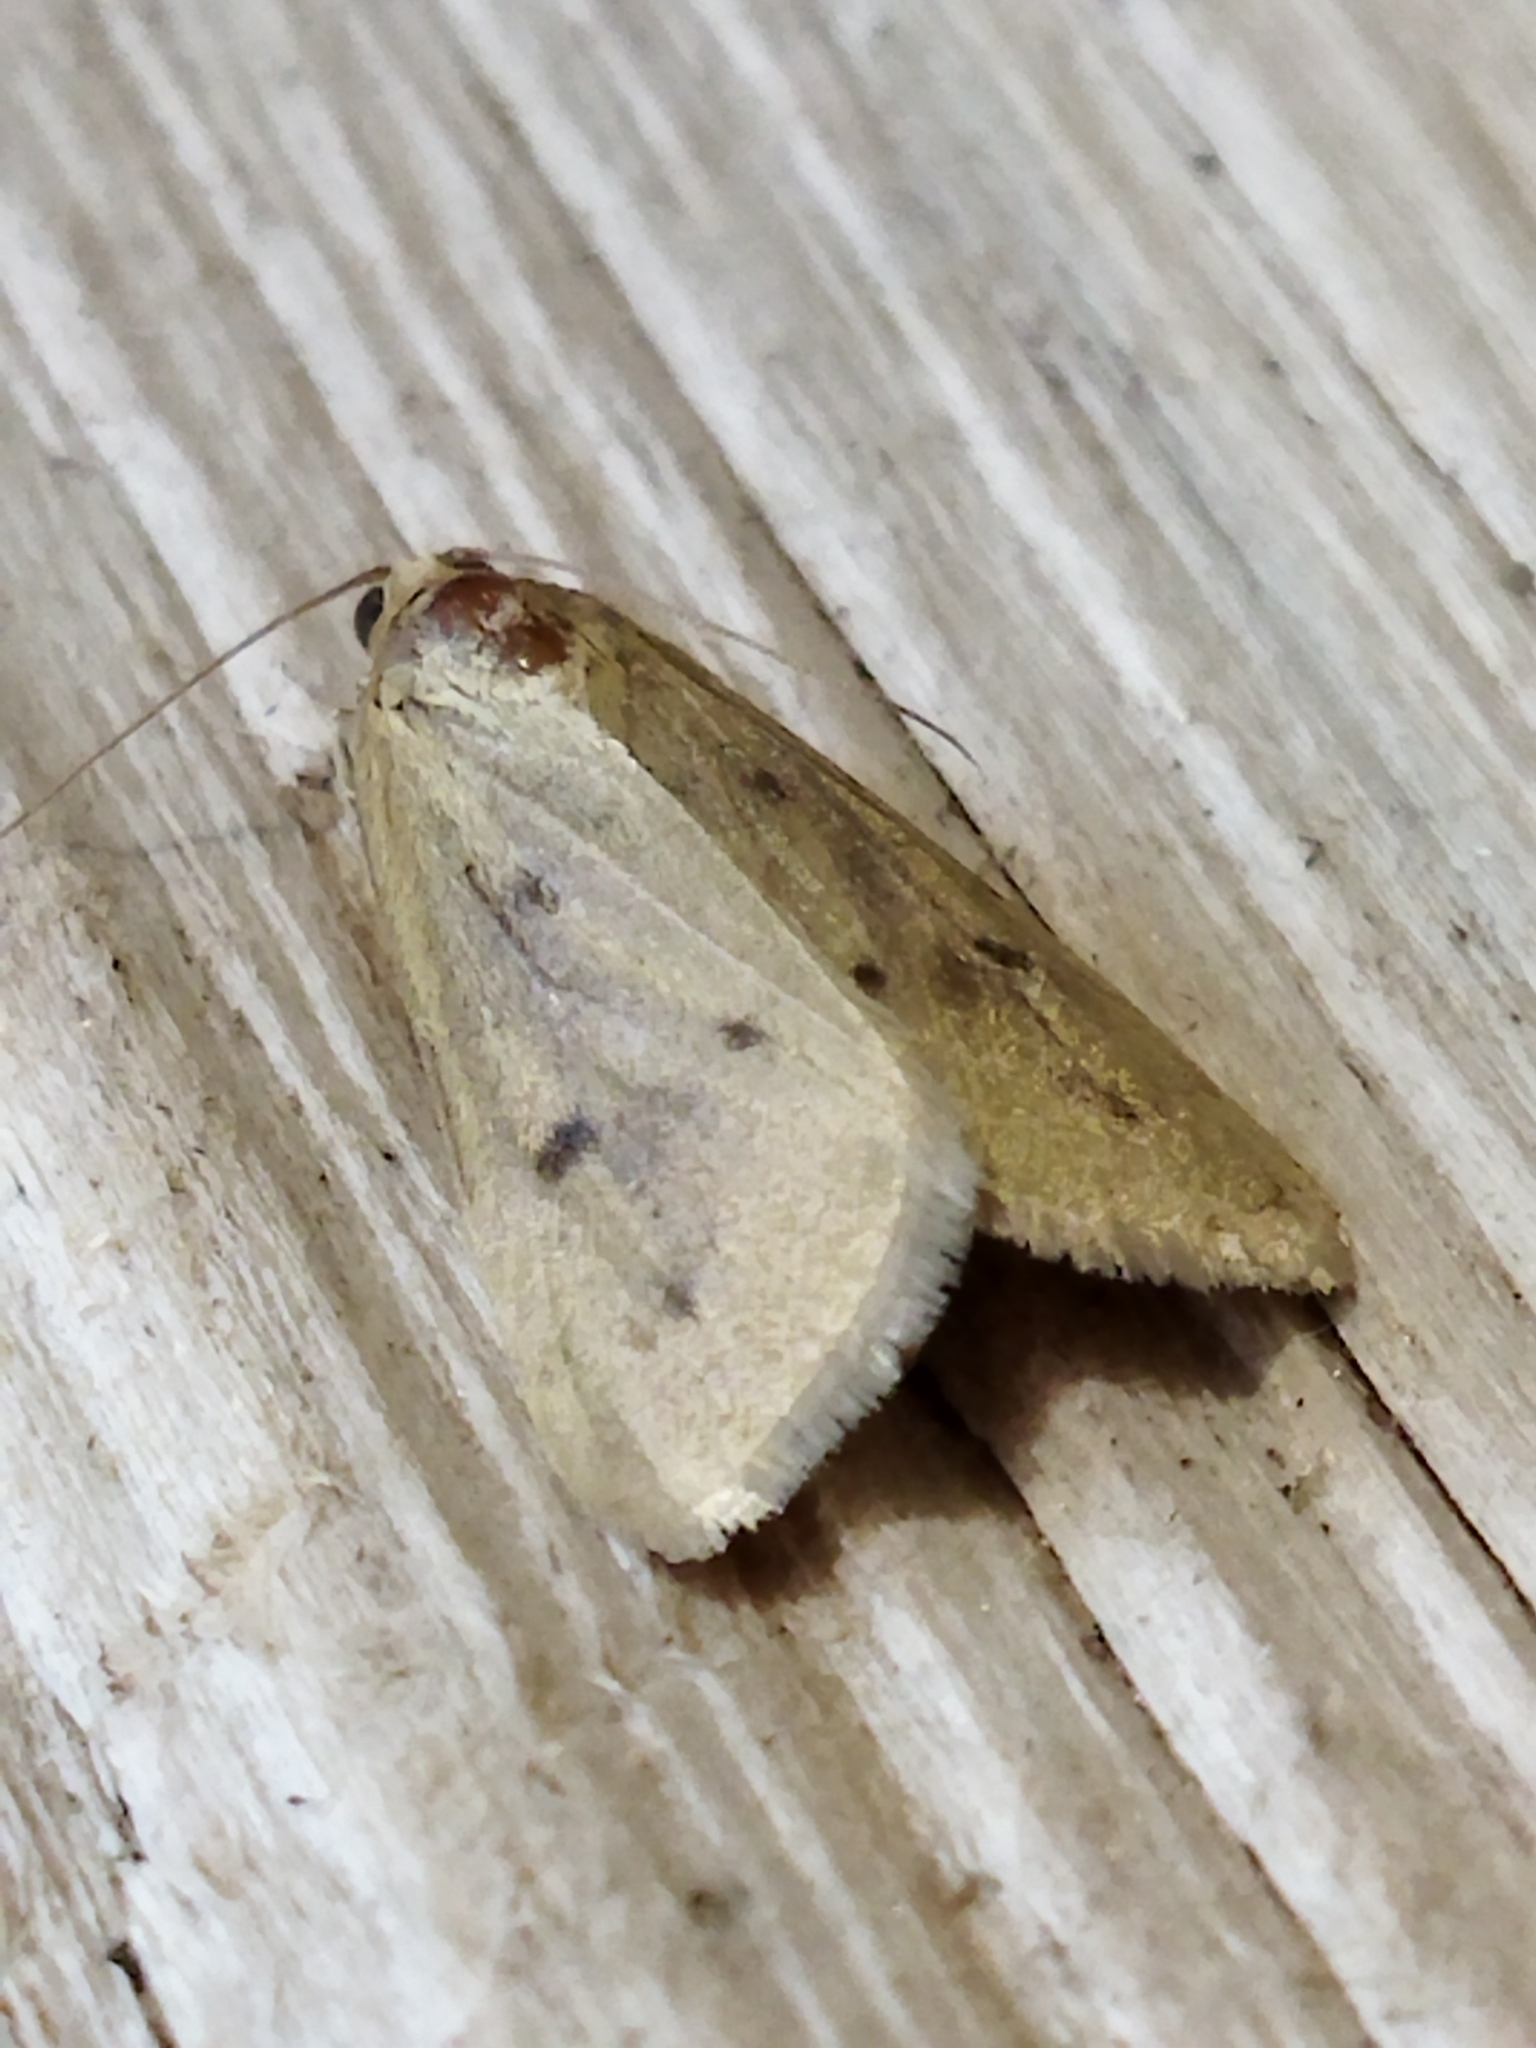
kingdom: Animalia
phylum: Arthropoda
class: Insecta
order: Lepidoptera
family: Crambidae
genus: Achyra
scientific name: Achyra nudalis
